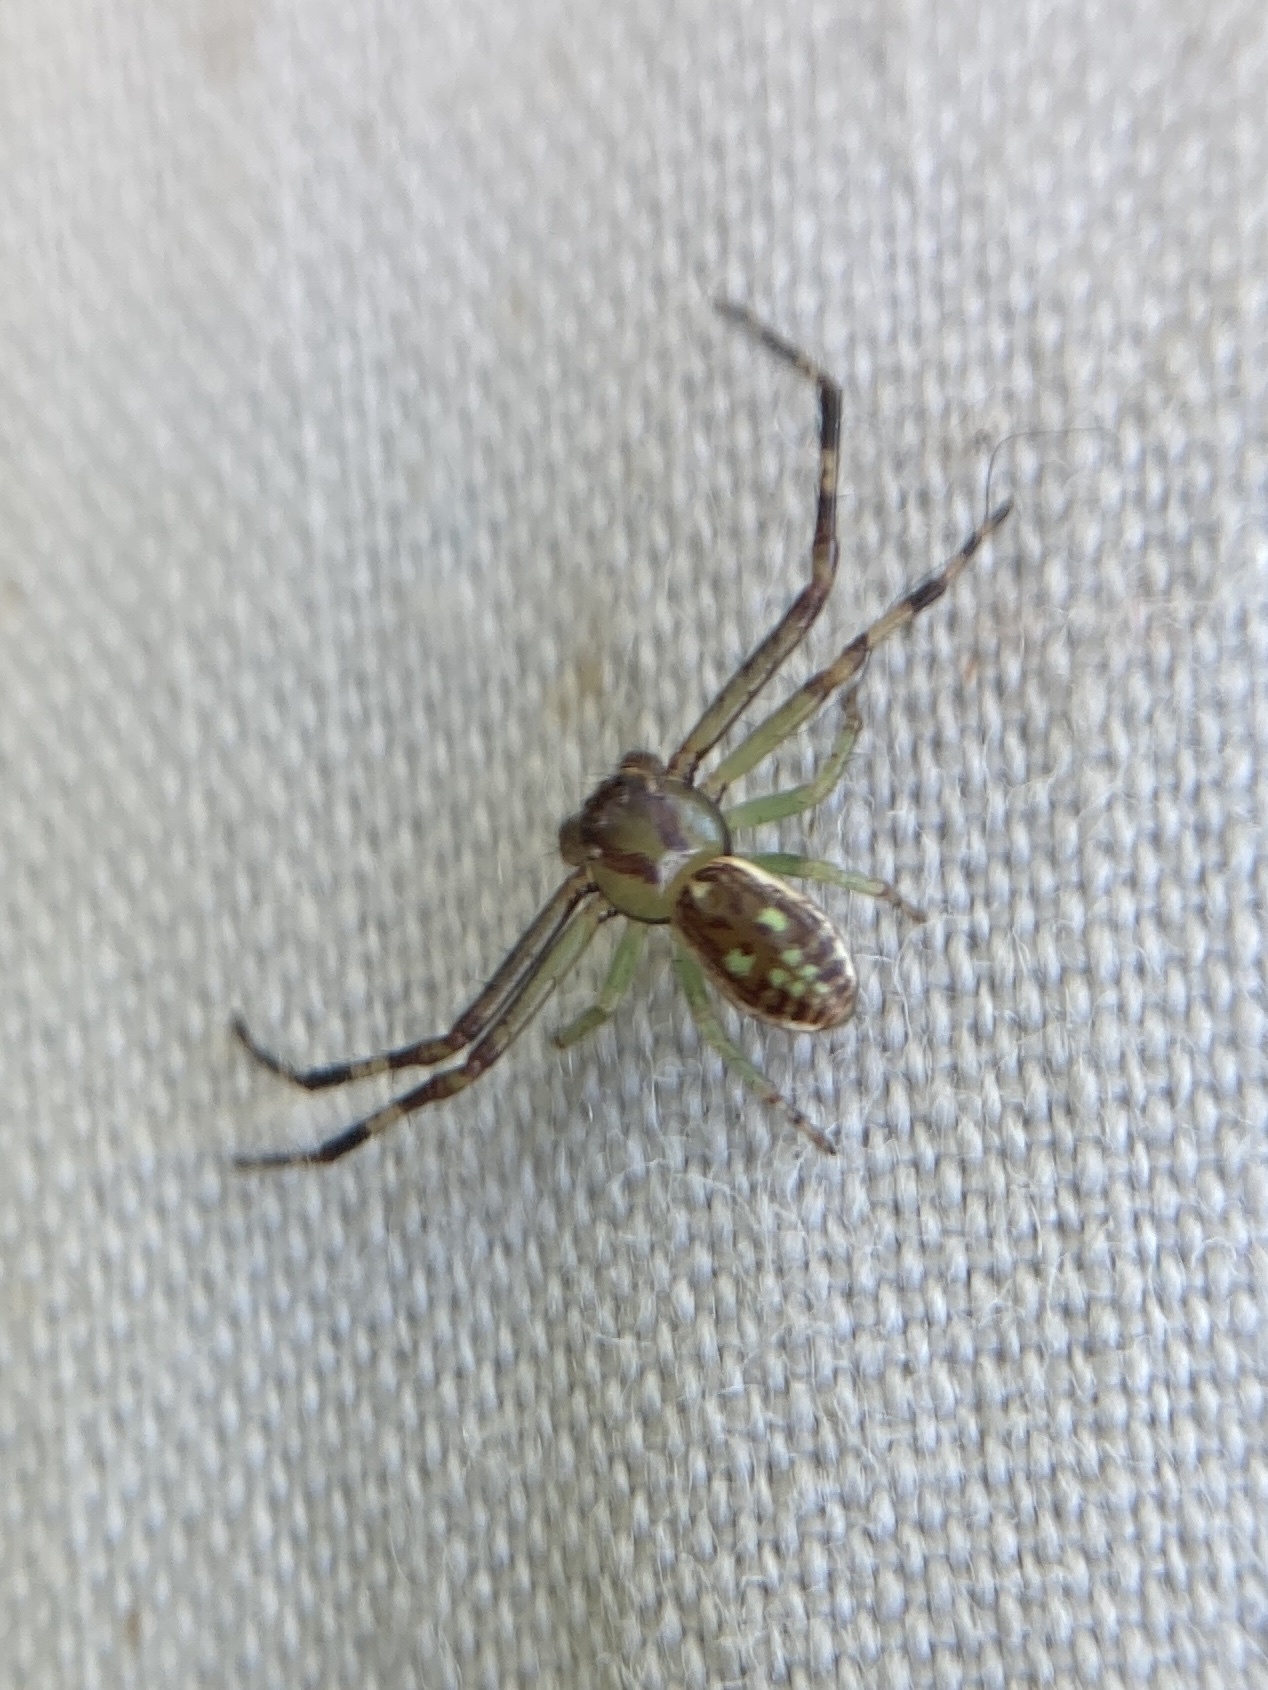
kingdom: Animalia
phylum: Arthropoda
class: Arachnida
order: Araneae
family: Thomisidae
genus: Diaea
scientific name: Diaea ambara
